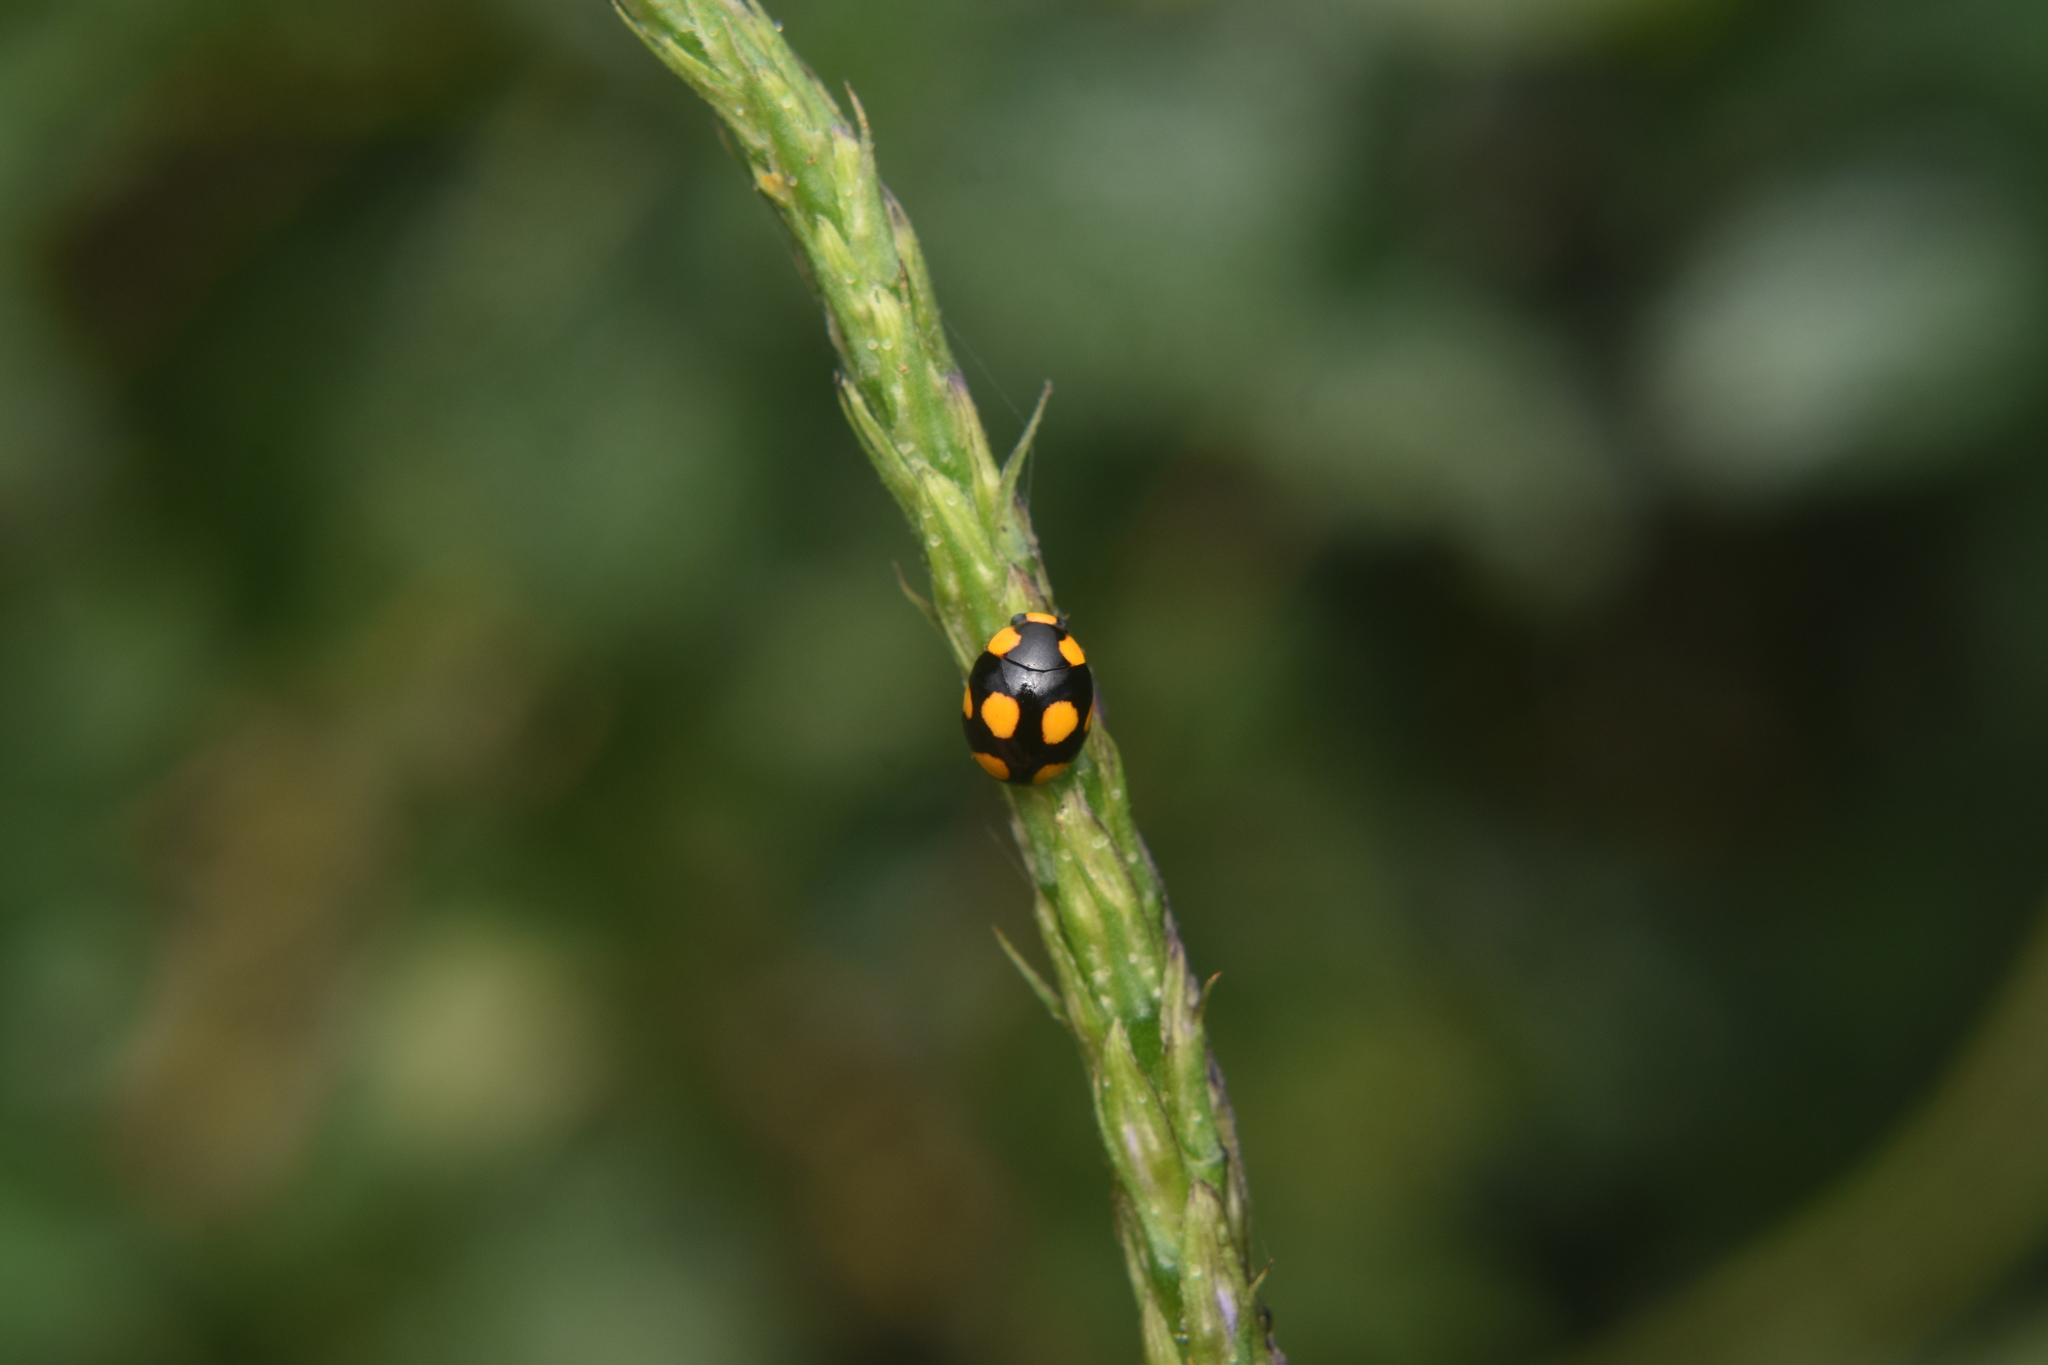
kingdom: Animalia
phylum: Arthropoda
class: Insecta
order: Coleoptera
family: Coccinellidae
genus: Brachiacantha
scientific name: Brachiacantha bistripustulata
